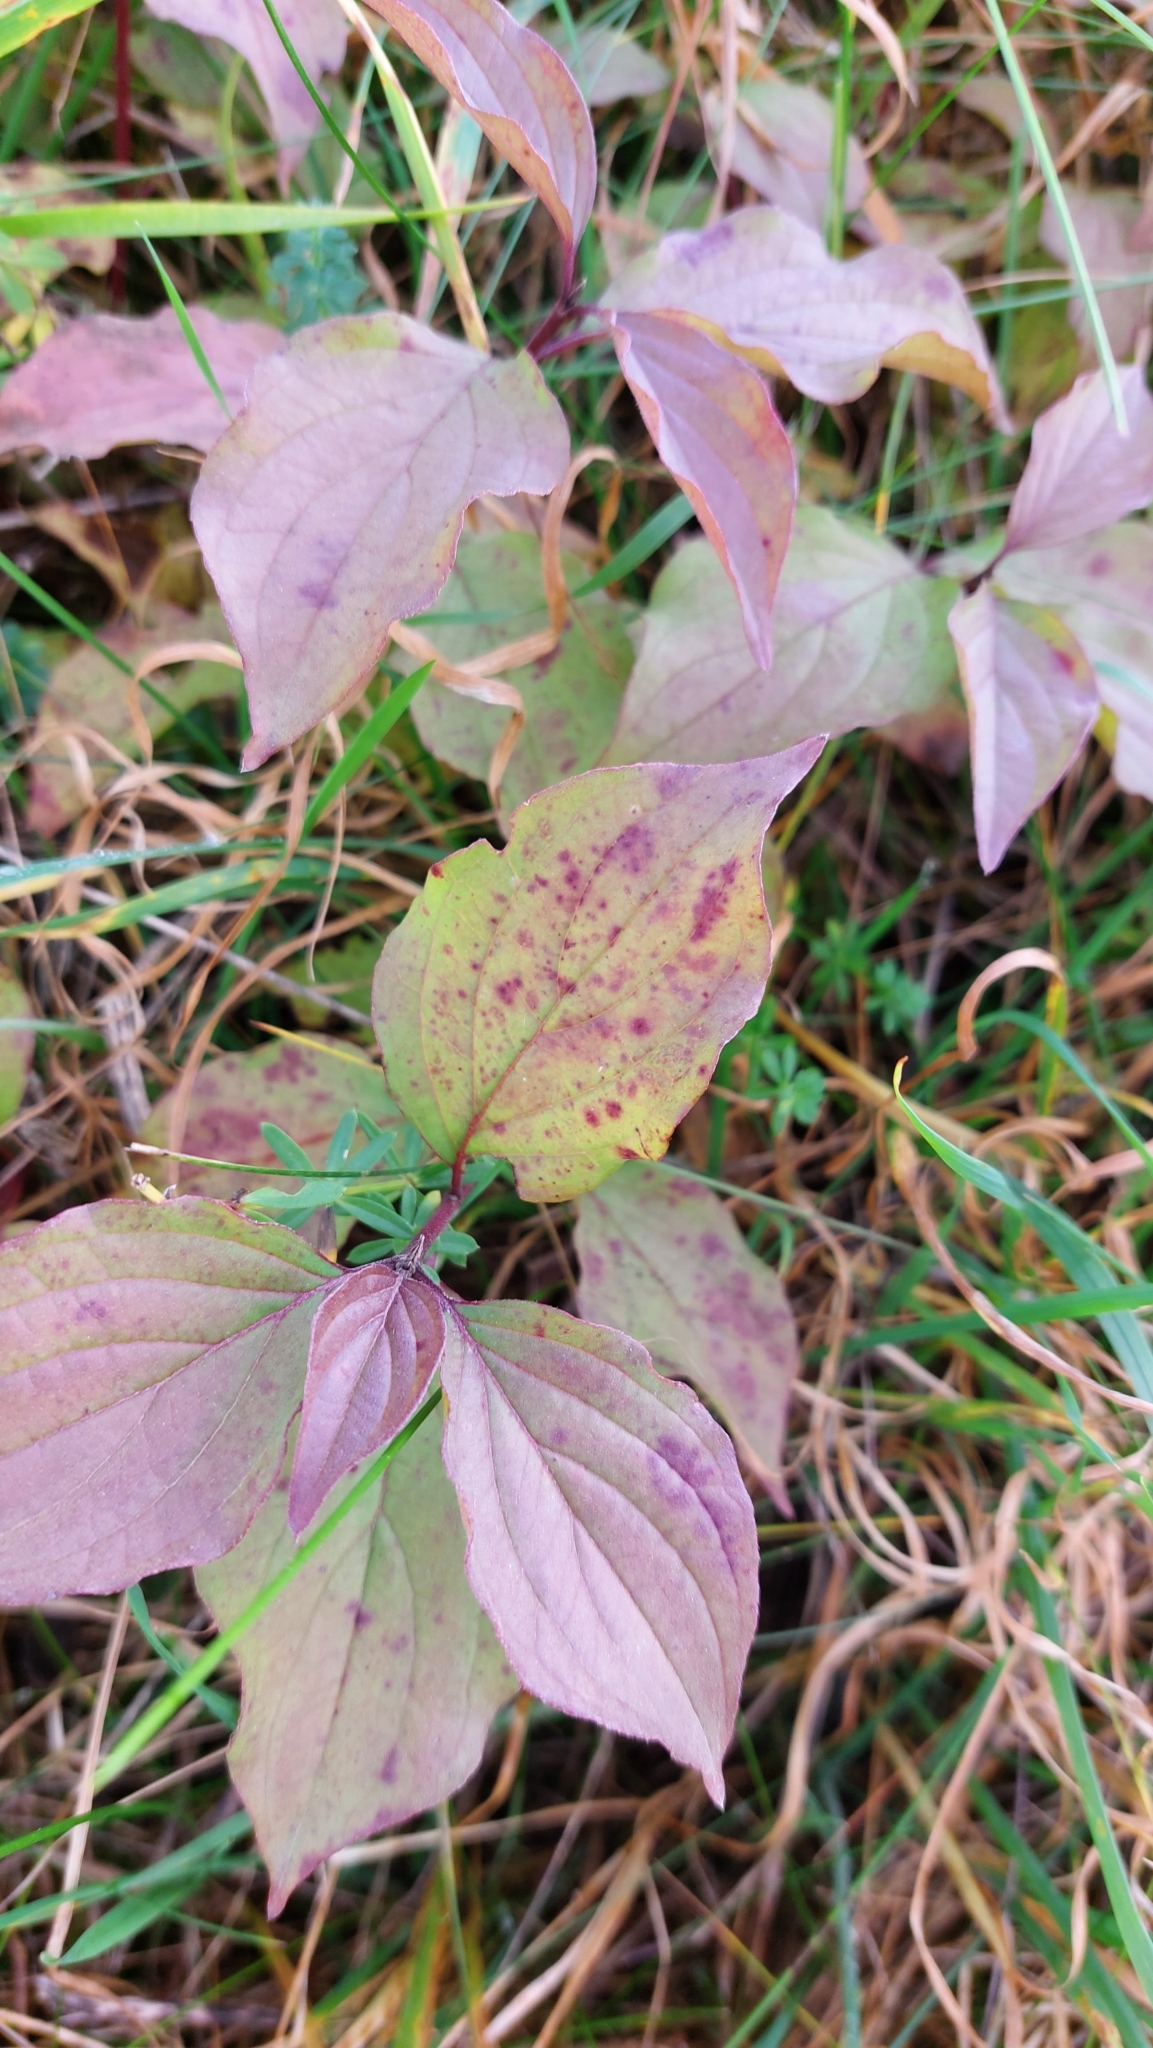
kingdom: Plantae
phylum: Tracheophyta
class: Magnoliopsida
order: Cornales
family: Cornaceae
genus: Cornus
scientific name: Cornus sanguinea
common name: Dogwood
